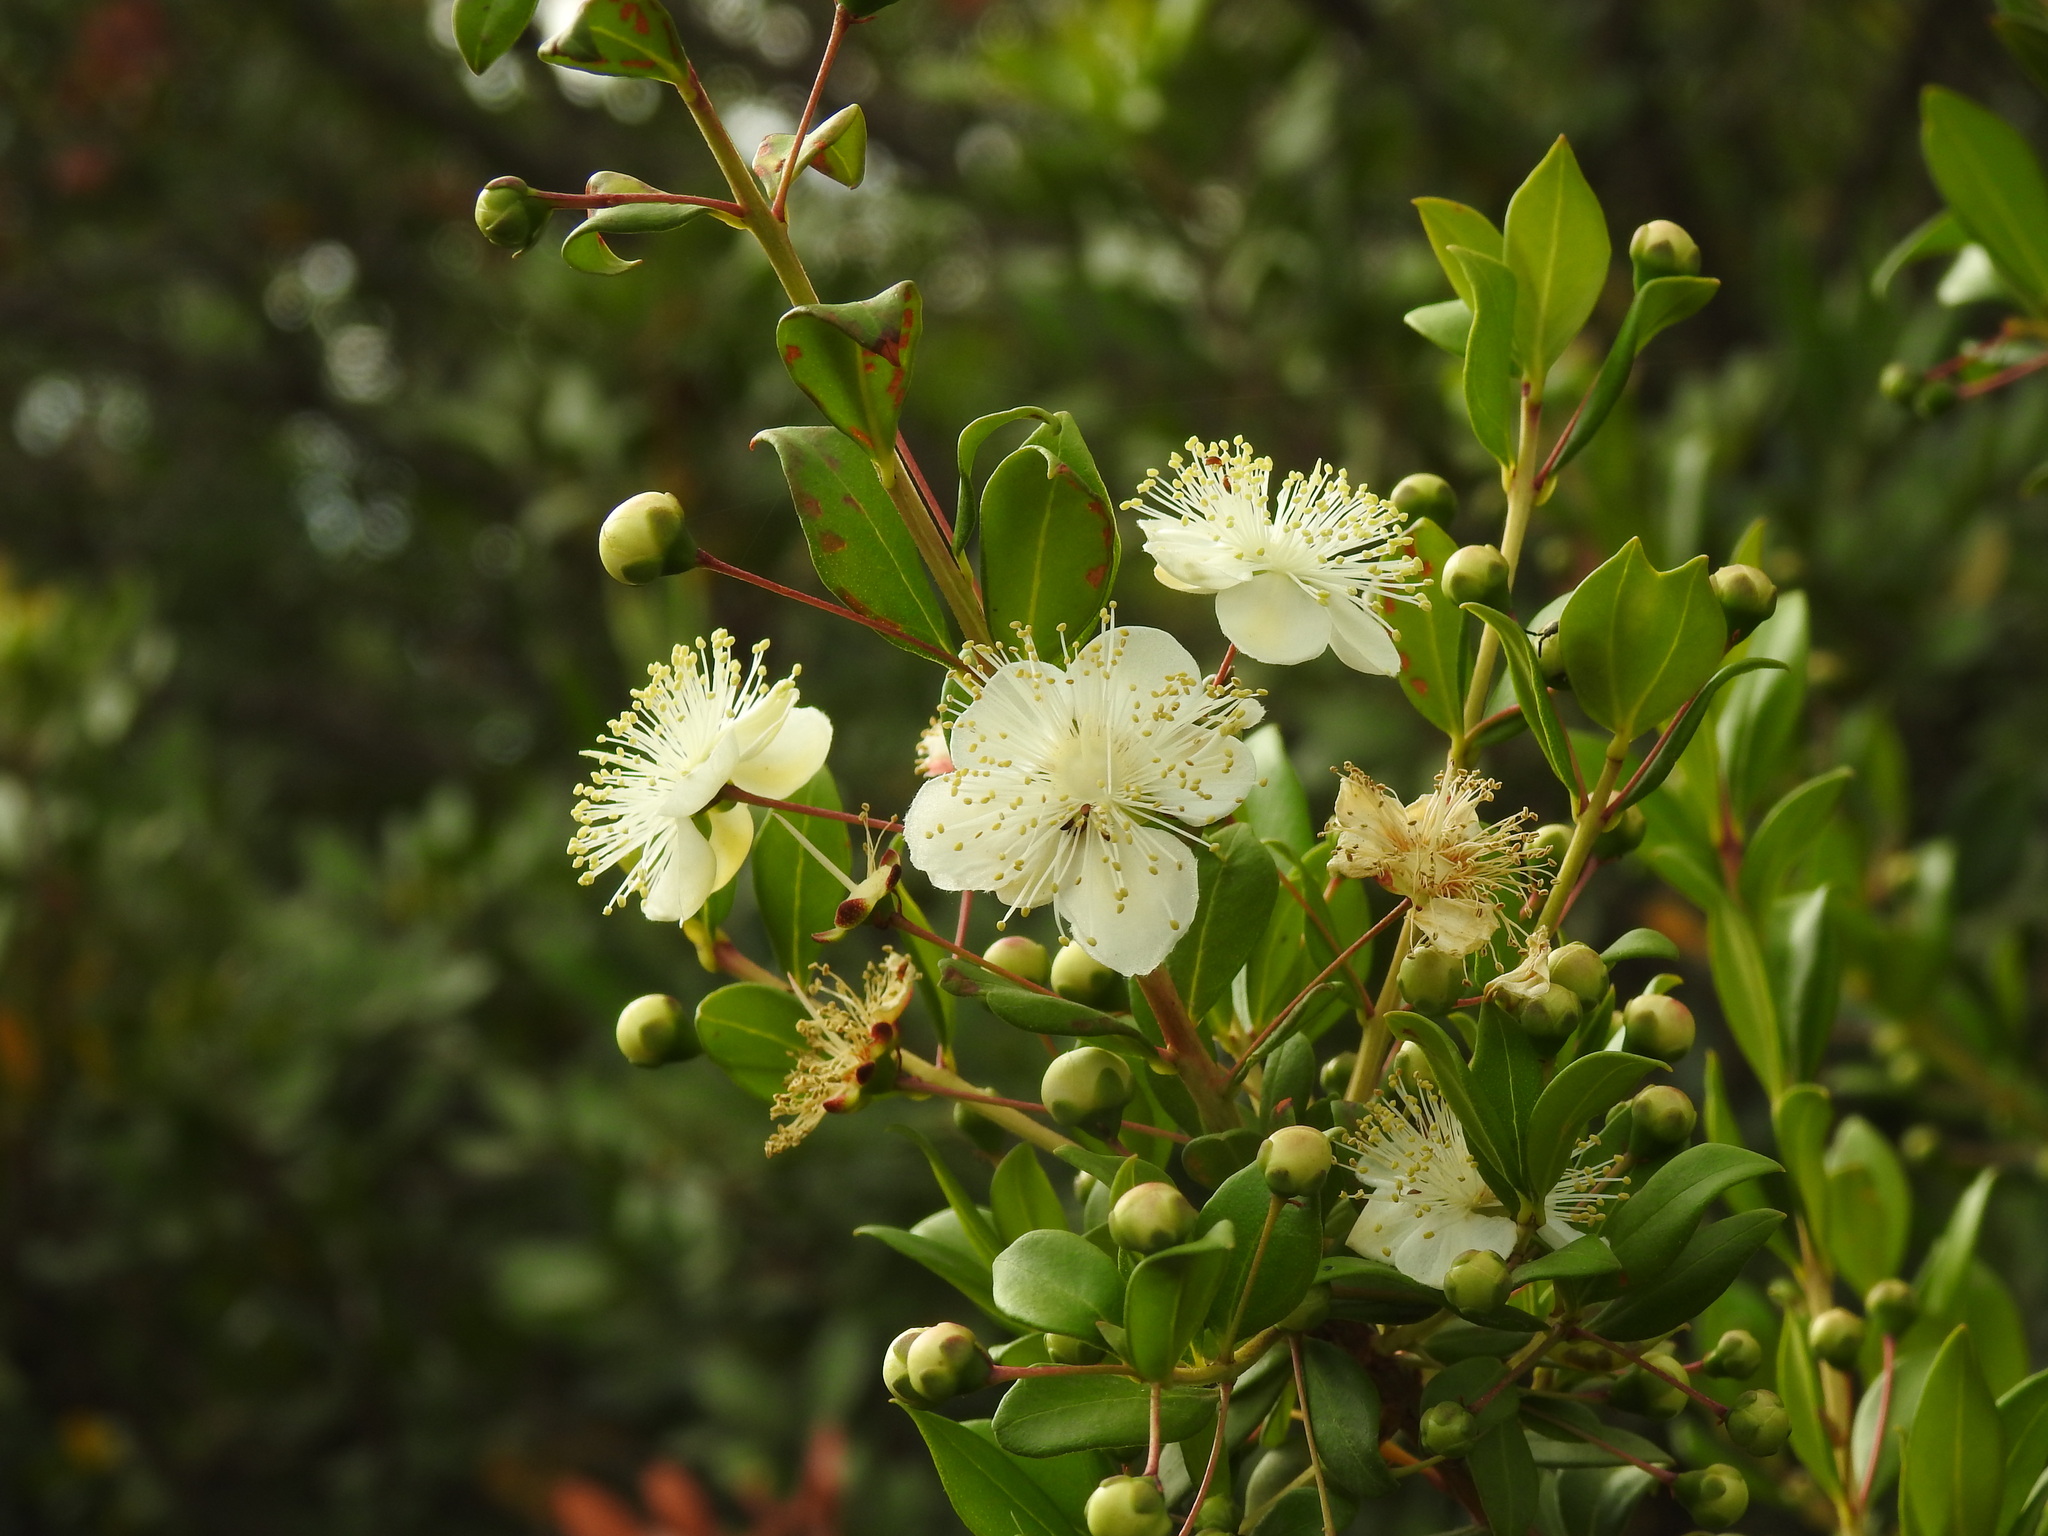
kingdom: Plantae
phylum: Tracheophyta
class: Magnoliopsida
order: Myrtales
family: Myrtaceae
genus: Myrtus
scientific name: Myrtus communis
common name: Myrtle
